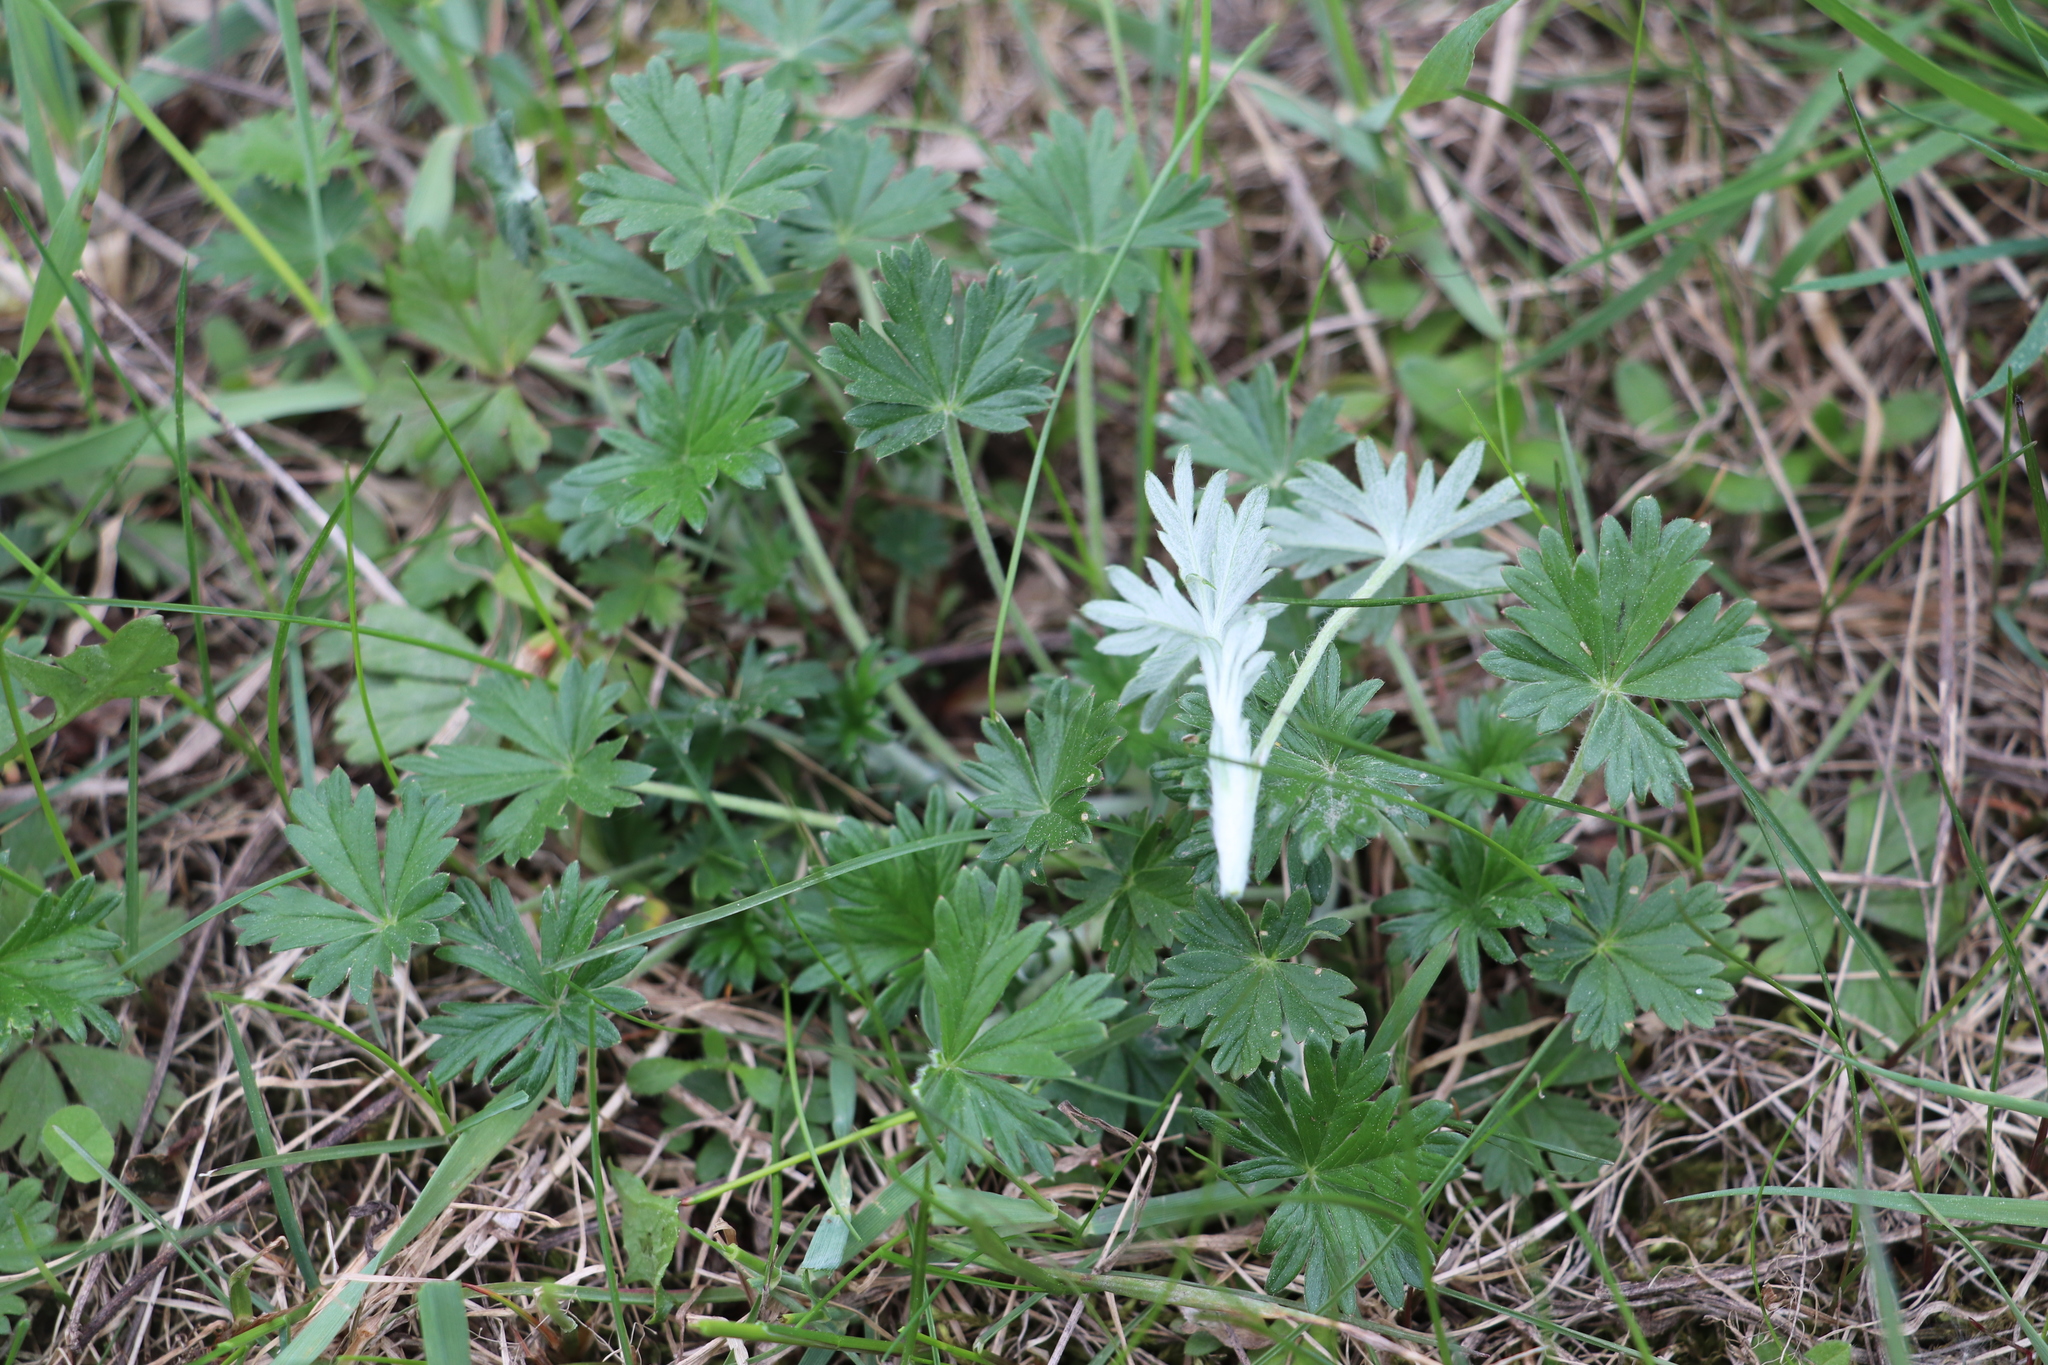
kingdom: Plantae
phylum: Tracheophyta
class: Magnoliopsida
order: Rosales
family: Rosaceae
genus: Potentilla
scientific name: Potentilla argentea
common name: Hoary cinquefoil
